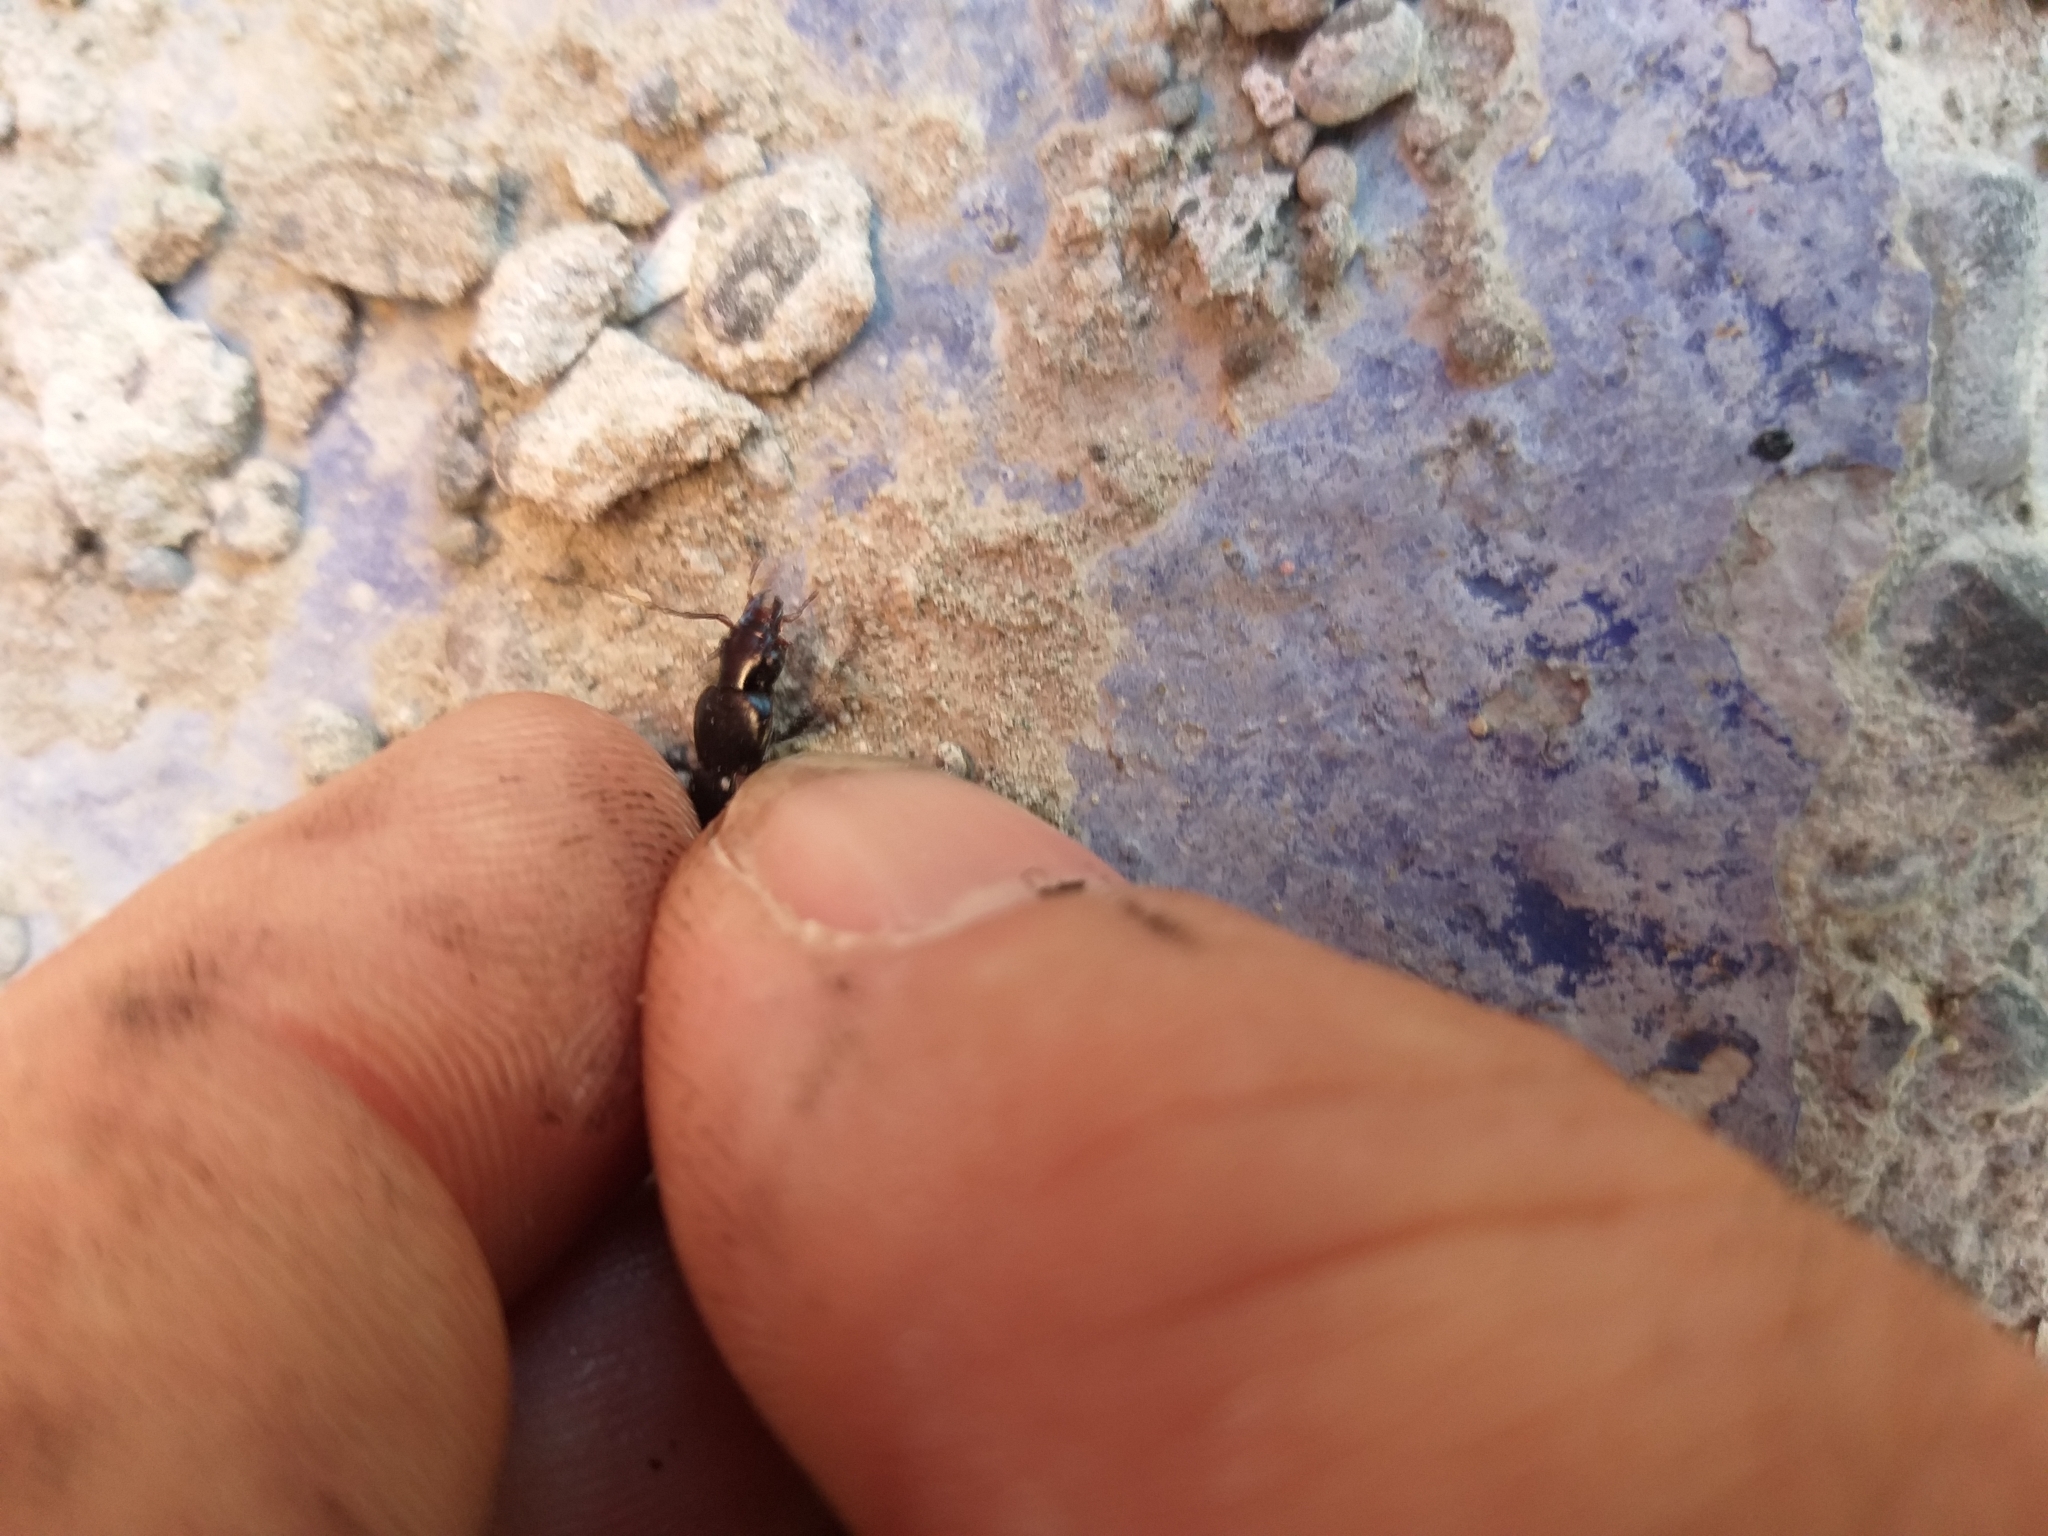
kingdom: Animalia
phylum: Arthropoda
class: Insecta
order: Coleoptera
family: Carabidae
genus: Laemostenus
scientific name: Laemostenus complanatus
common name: Cosmopolitan ground beetle
